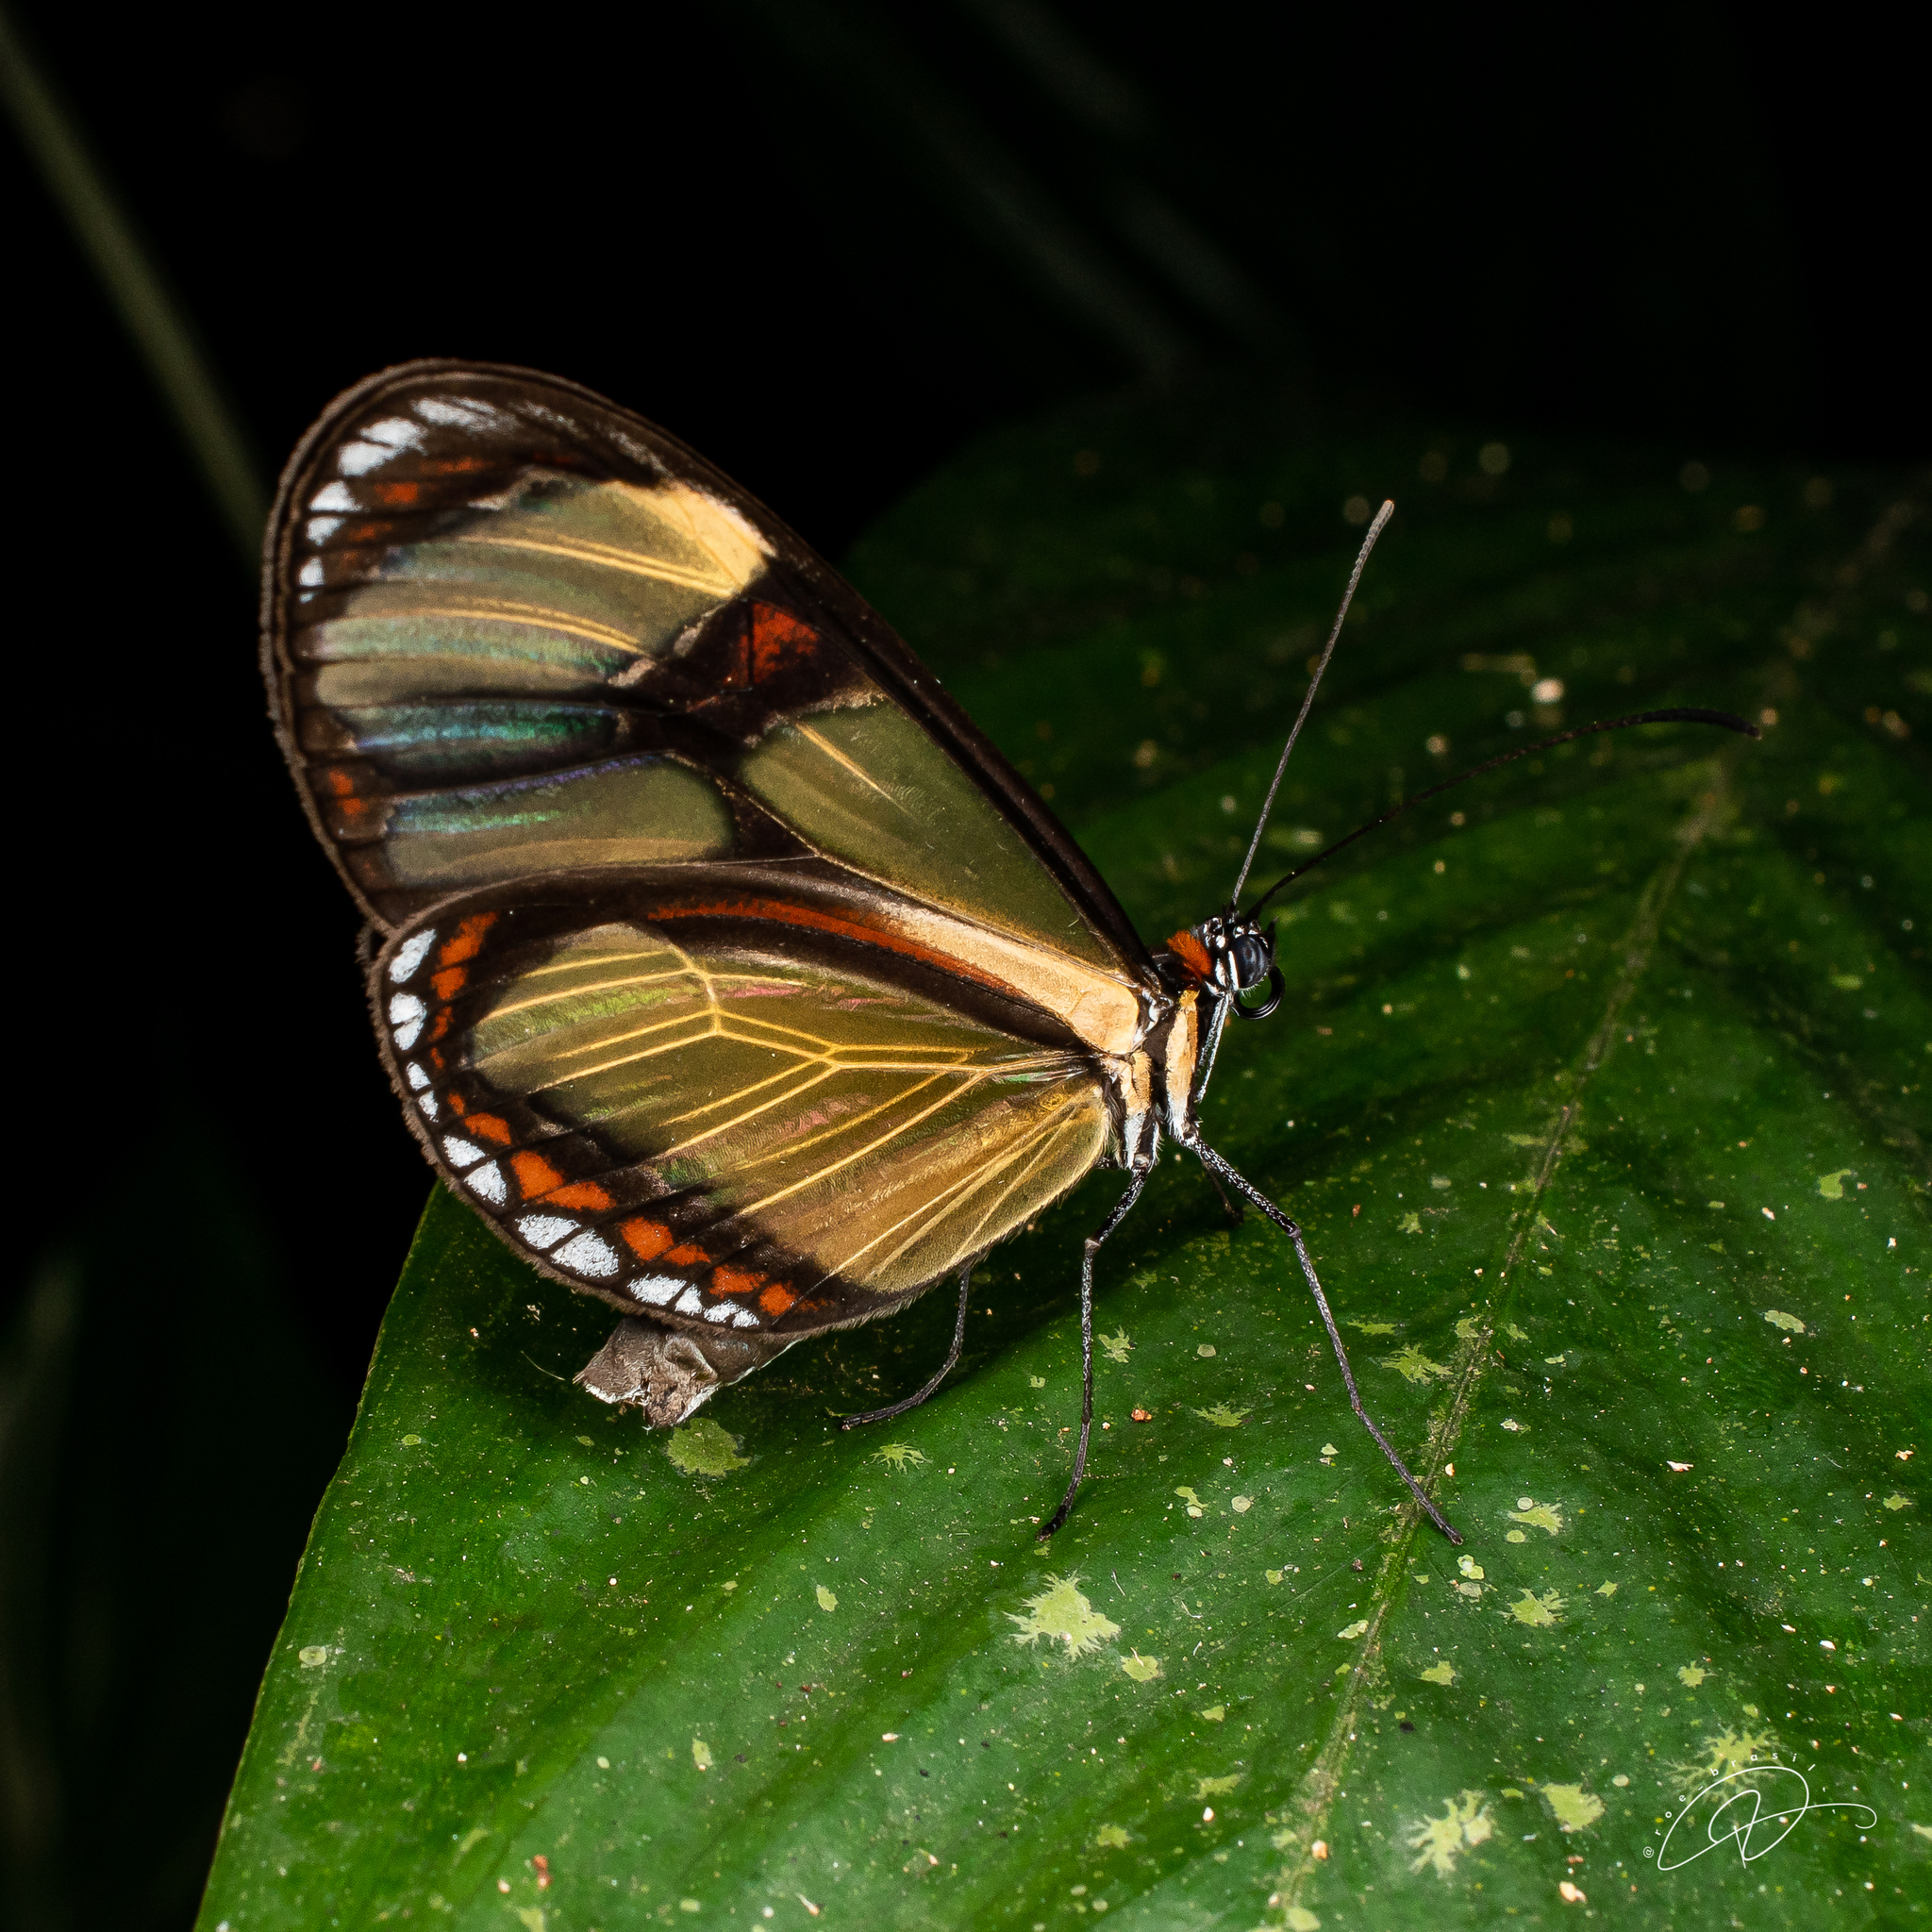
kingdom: Animalia
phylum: Arthropoda
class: Insecta
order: Lepidoptera
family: Nymphalidae
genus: Epityches
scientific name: Epityches eupompe
